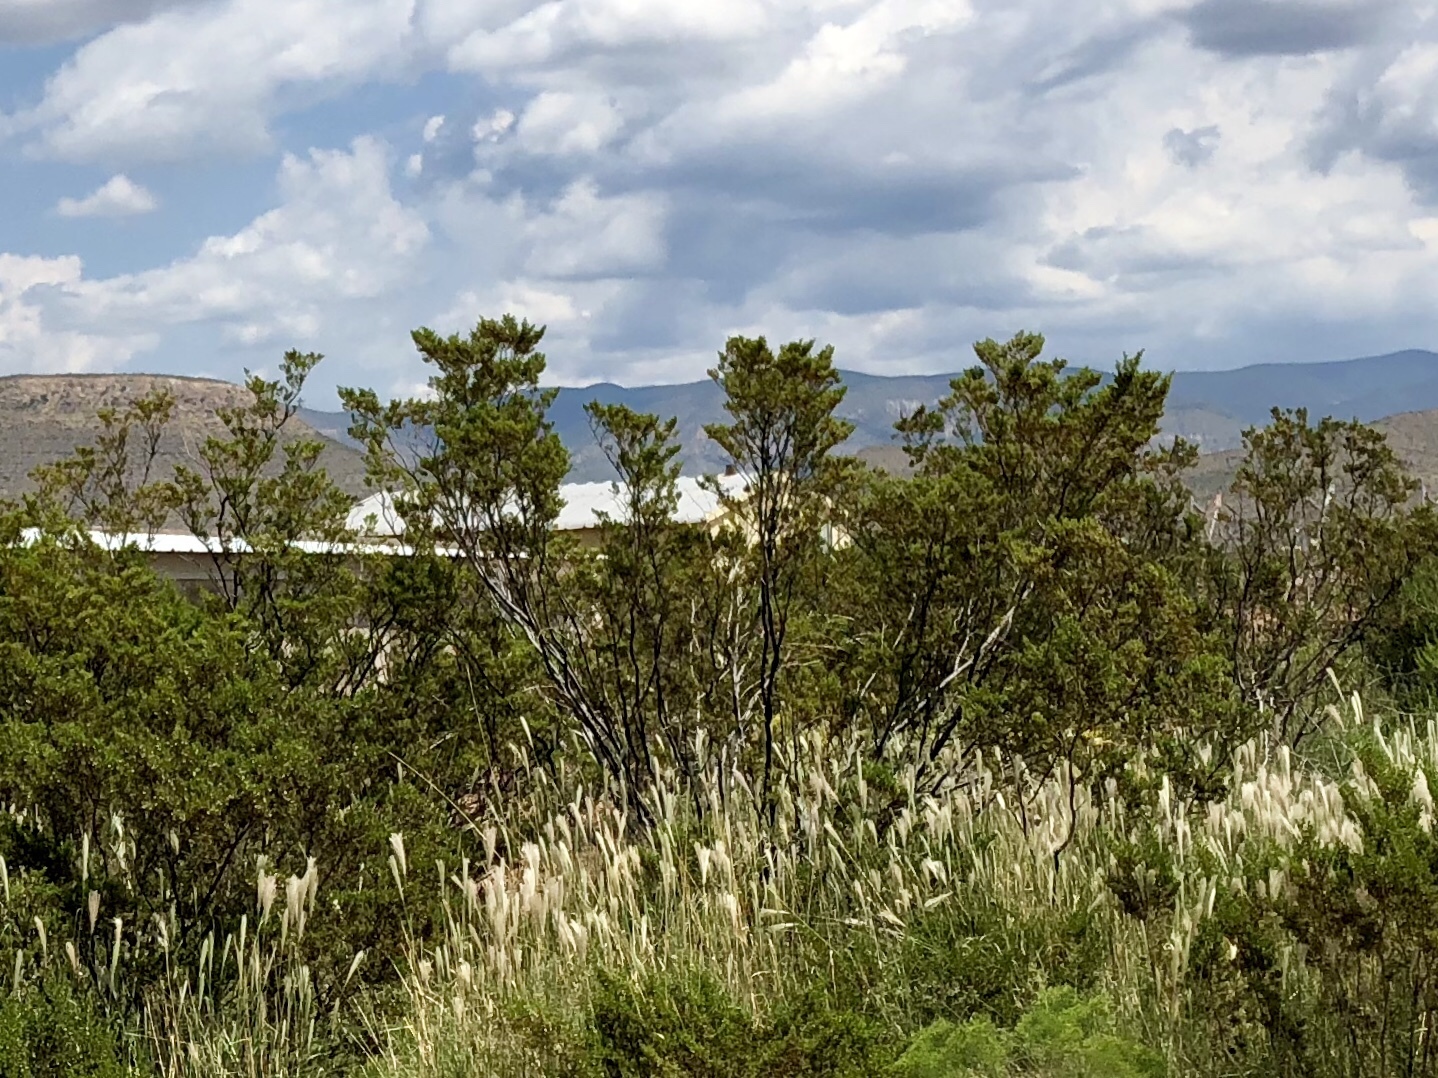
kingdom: Plantae
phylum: Tracheophyta
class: Magnoliopsida
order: Zygophyllales
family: Zygophyllaceae
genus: Larrea
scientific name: Larrea tridentata
